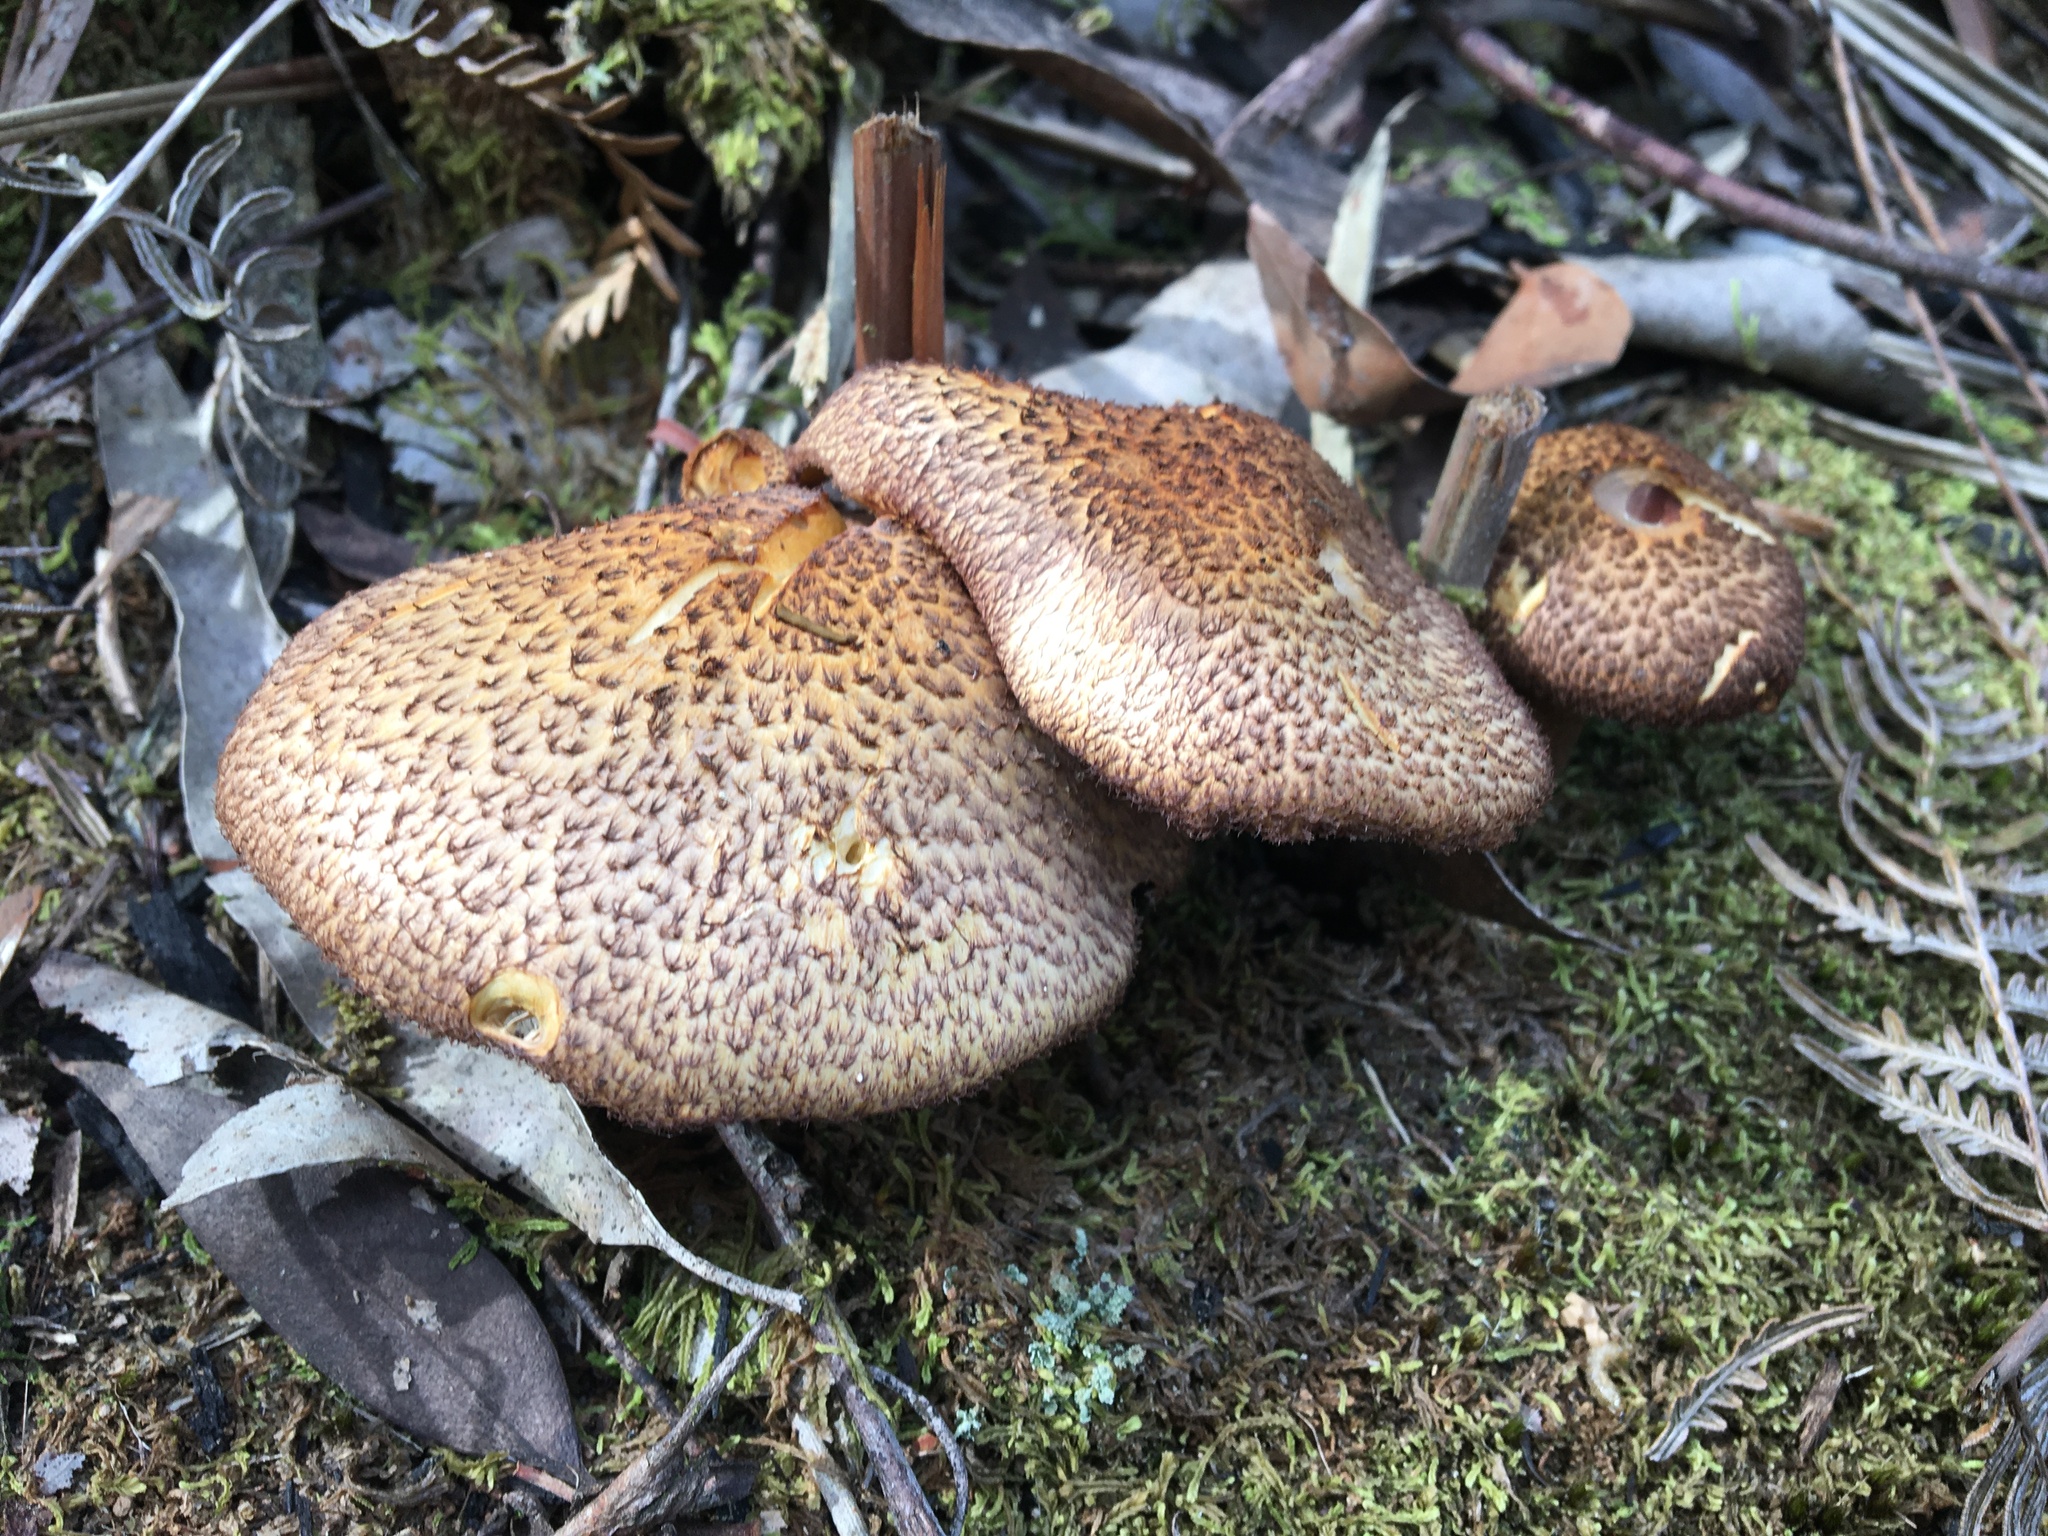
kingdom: Fungi
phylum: Basidiomycota
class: Agaricomycetes
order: Agaricales
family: Tricholomataceae
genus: Tricholomopsis
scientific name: Tricholomopsis scabra
